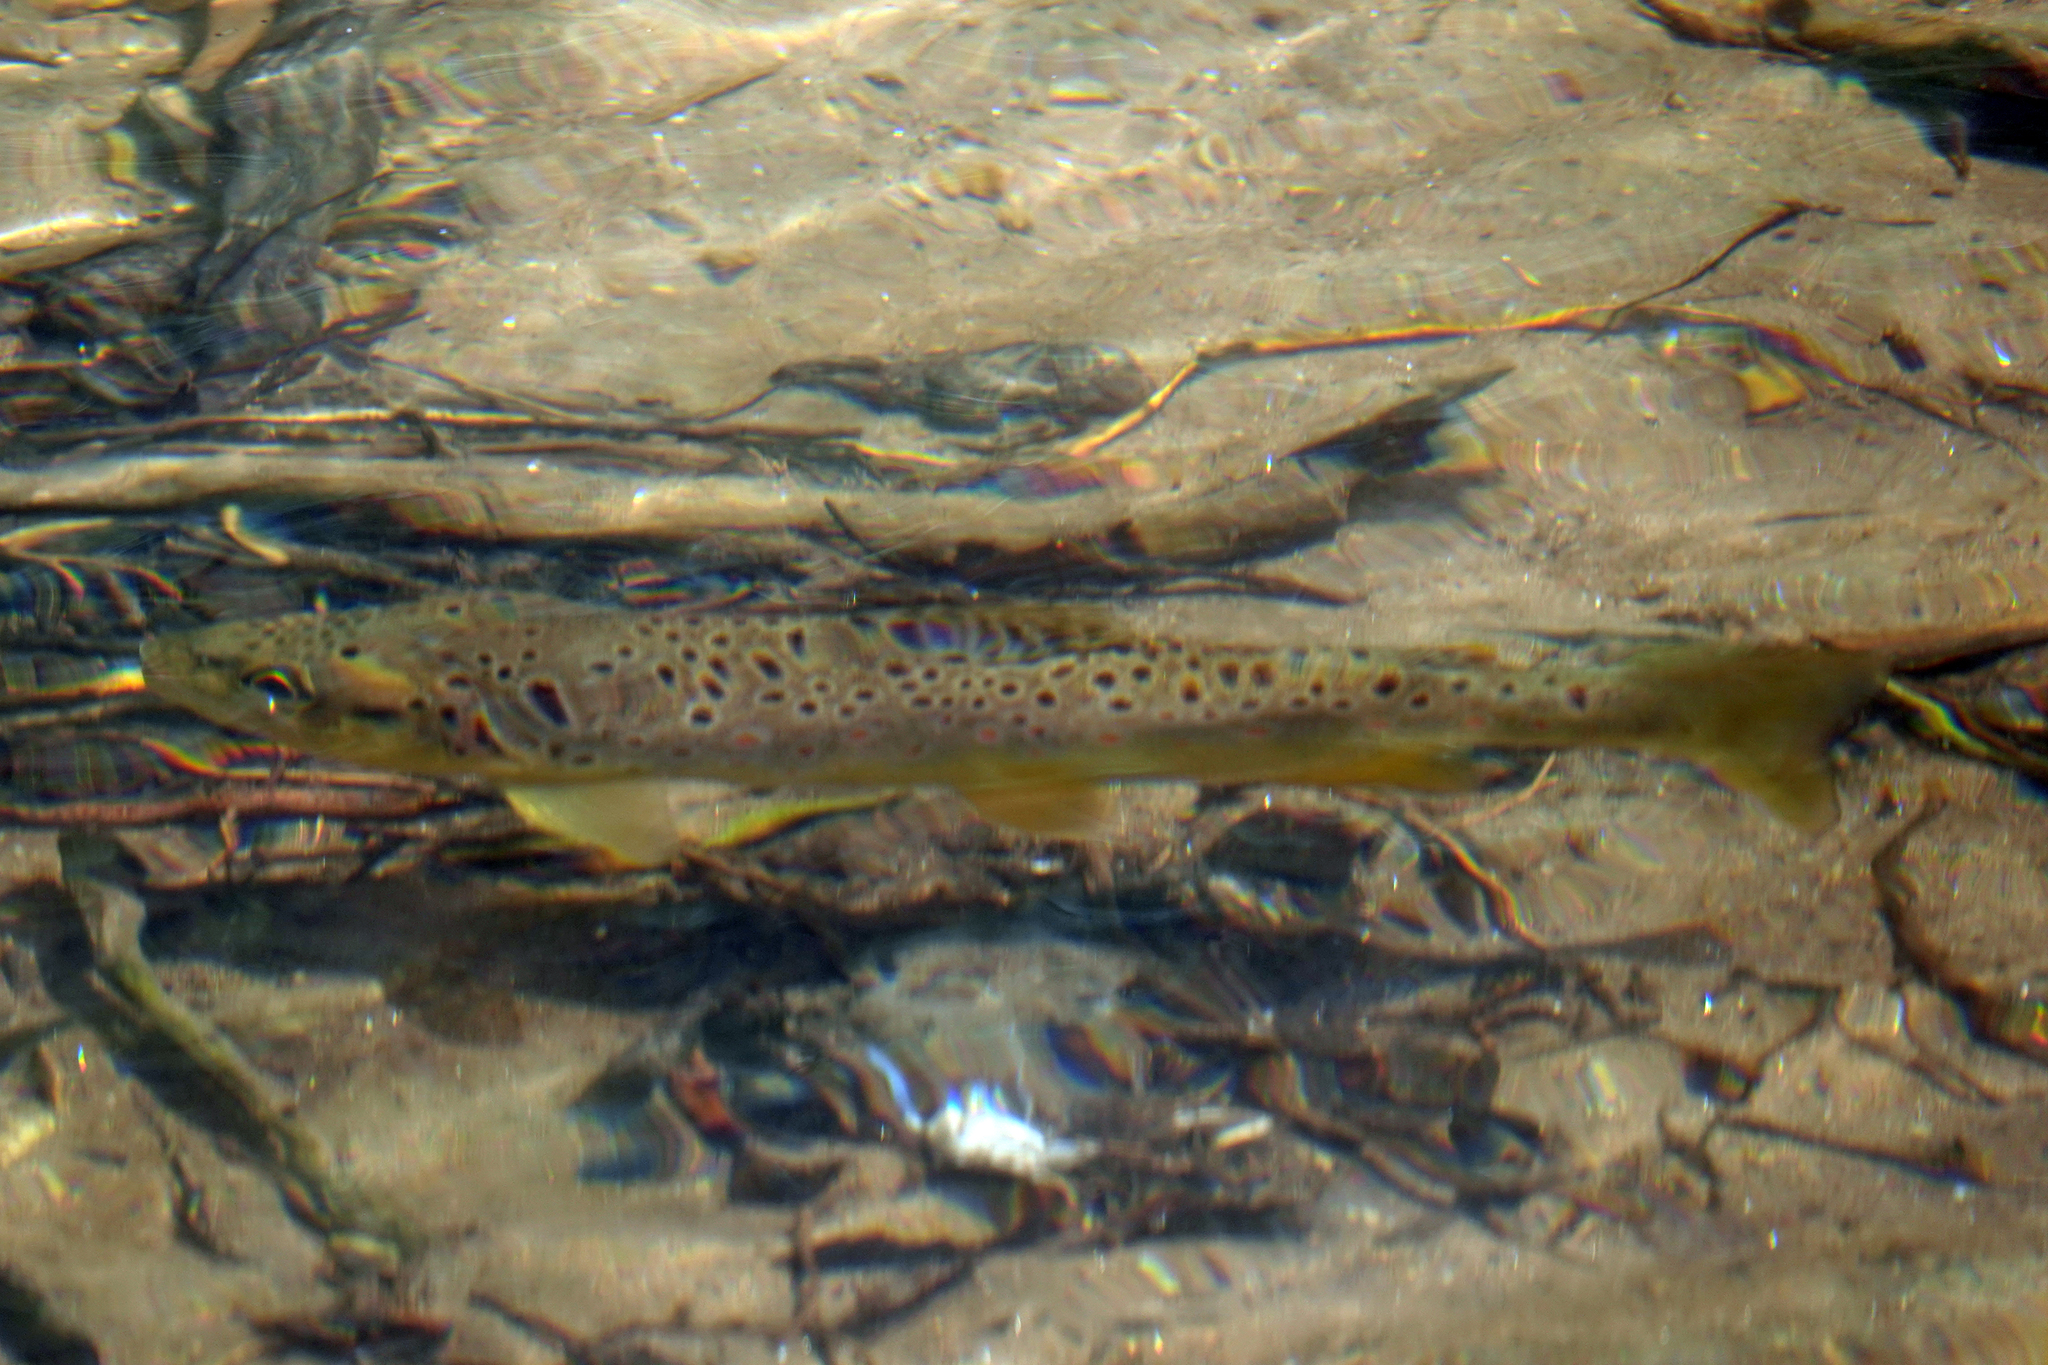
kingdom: Animalia
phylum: Chordata
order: Salmoniformes
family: Salmonidae
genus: Salmo
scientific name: Salmo trutta
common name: Brown trout
